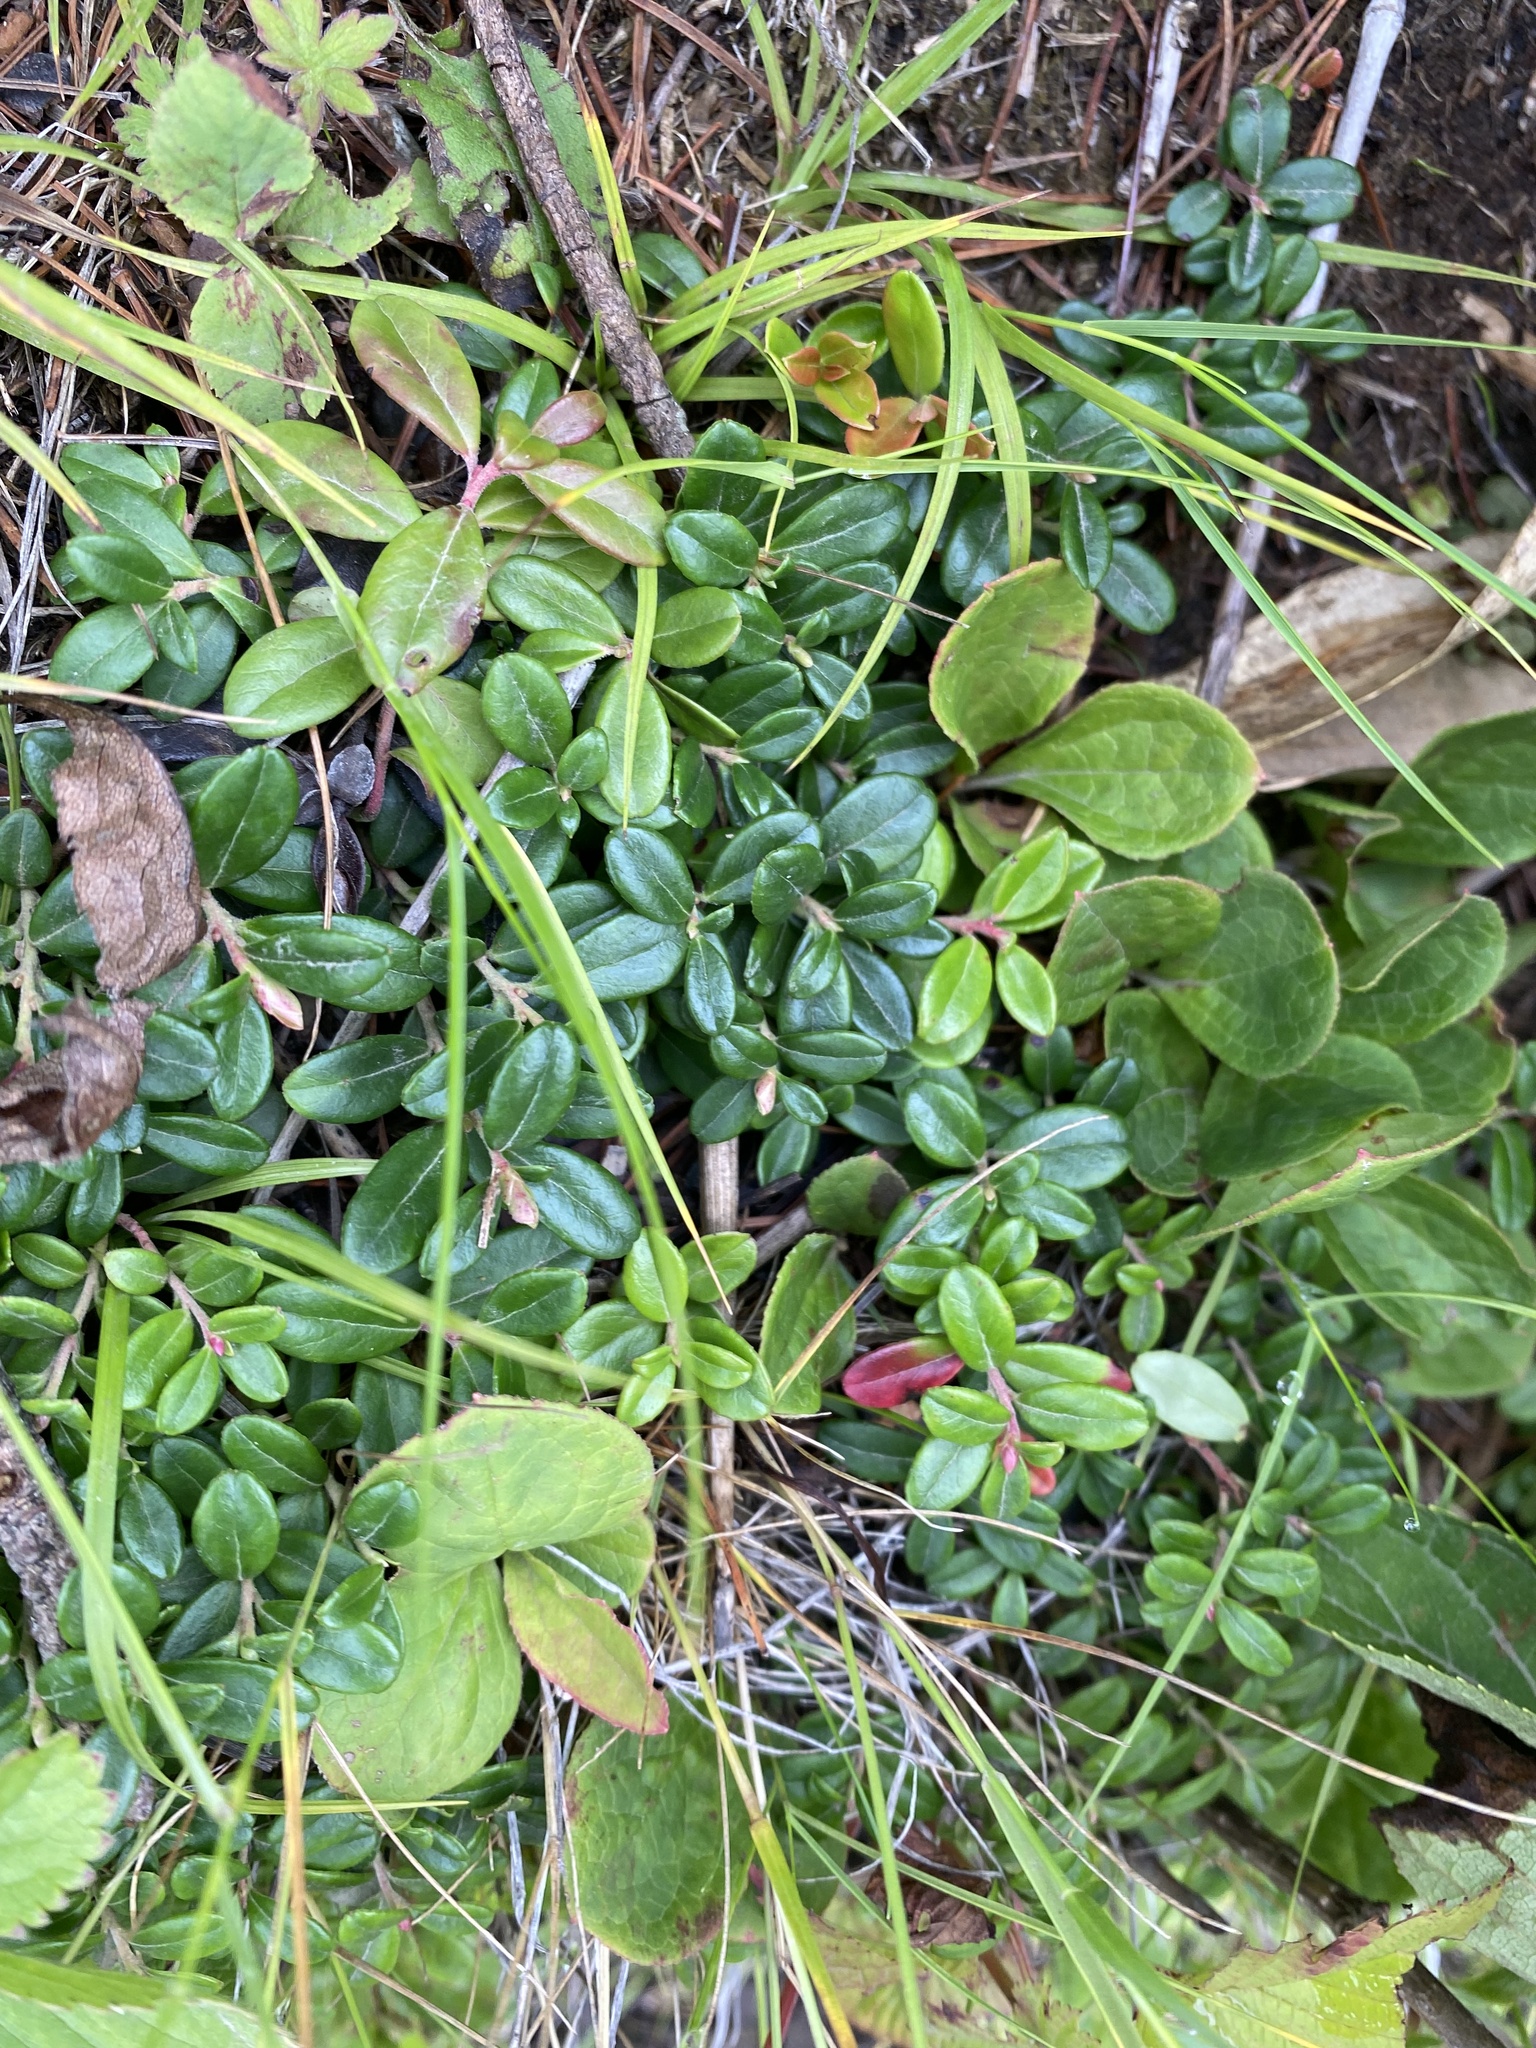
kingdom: Plantae
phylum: Tracheophyta
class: Magnoliopsida
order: Ericales
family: Ericaceae
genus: Vaccinium
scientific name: Vaccinium vitis-idaea
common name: Cowberry
